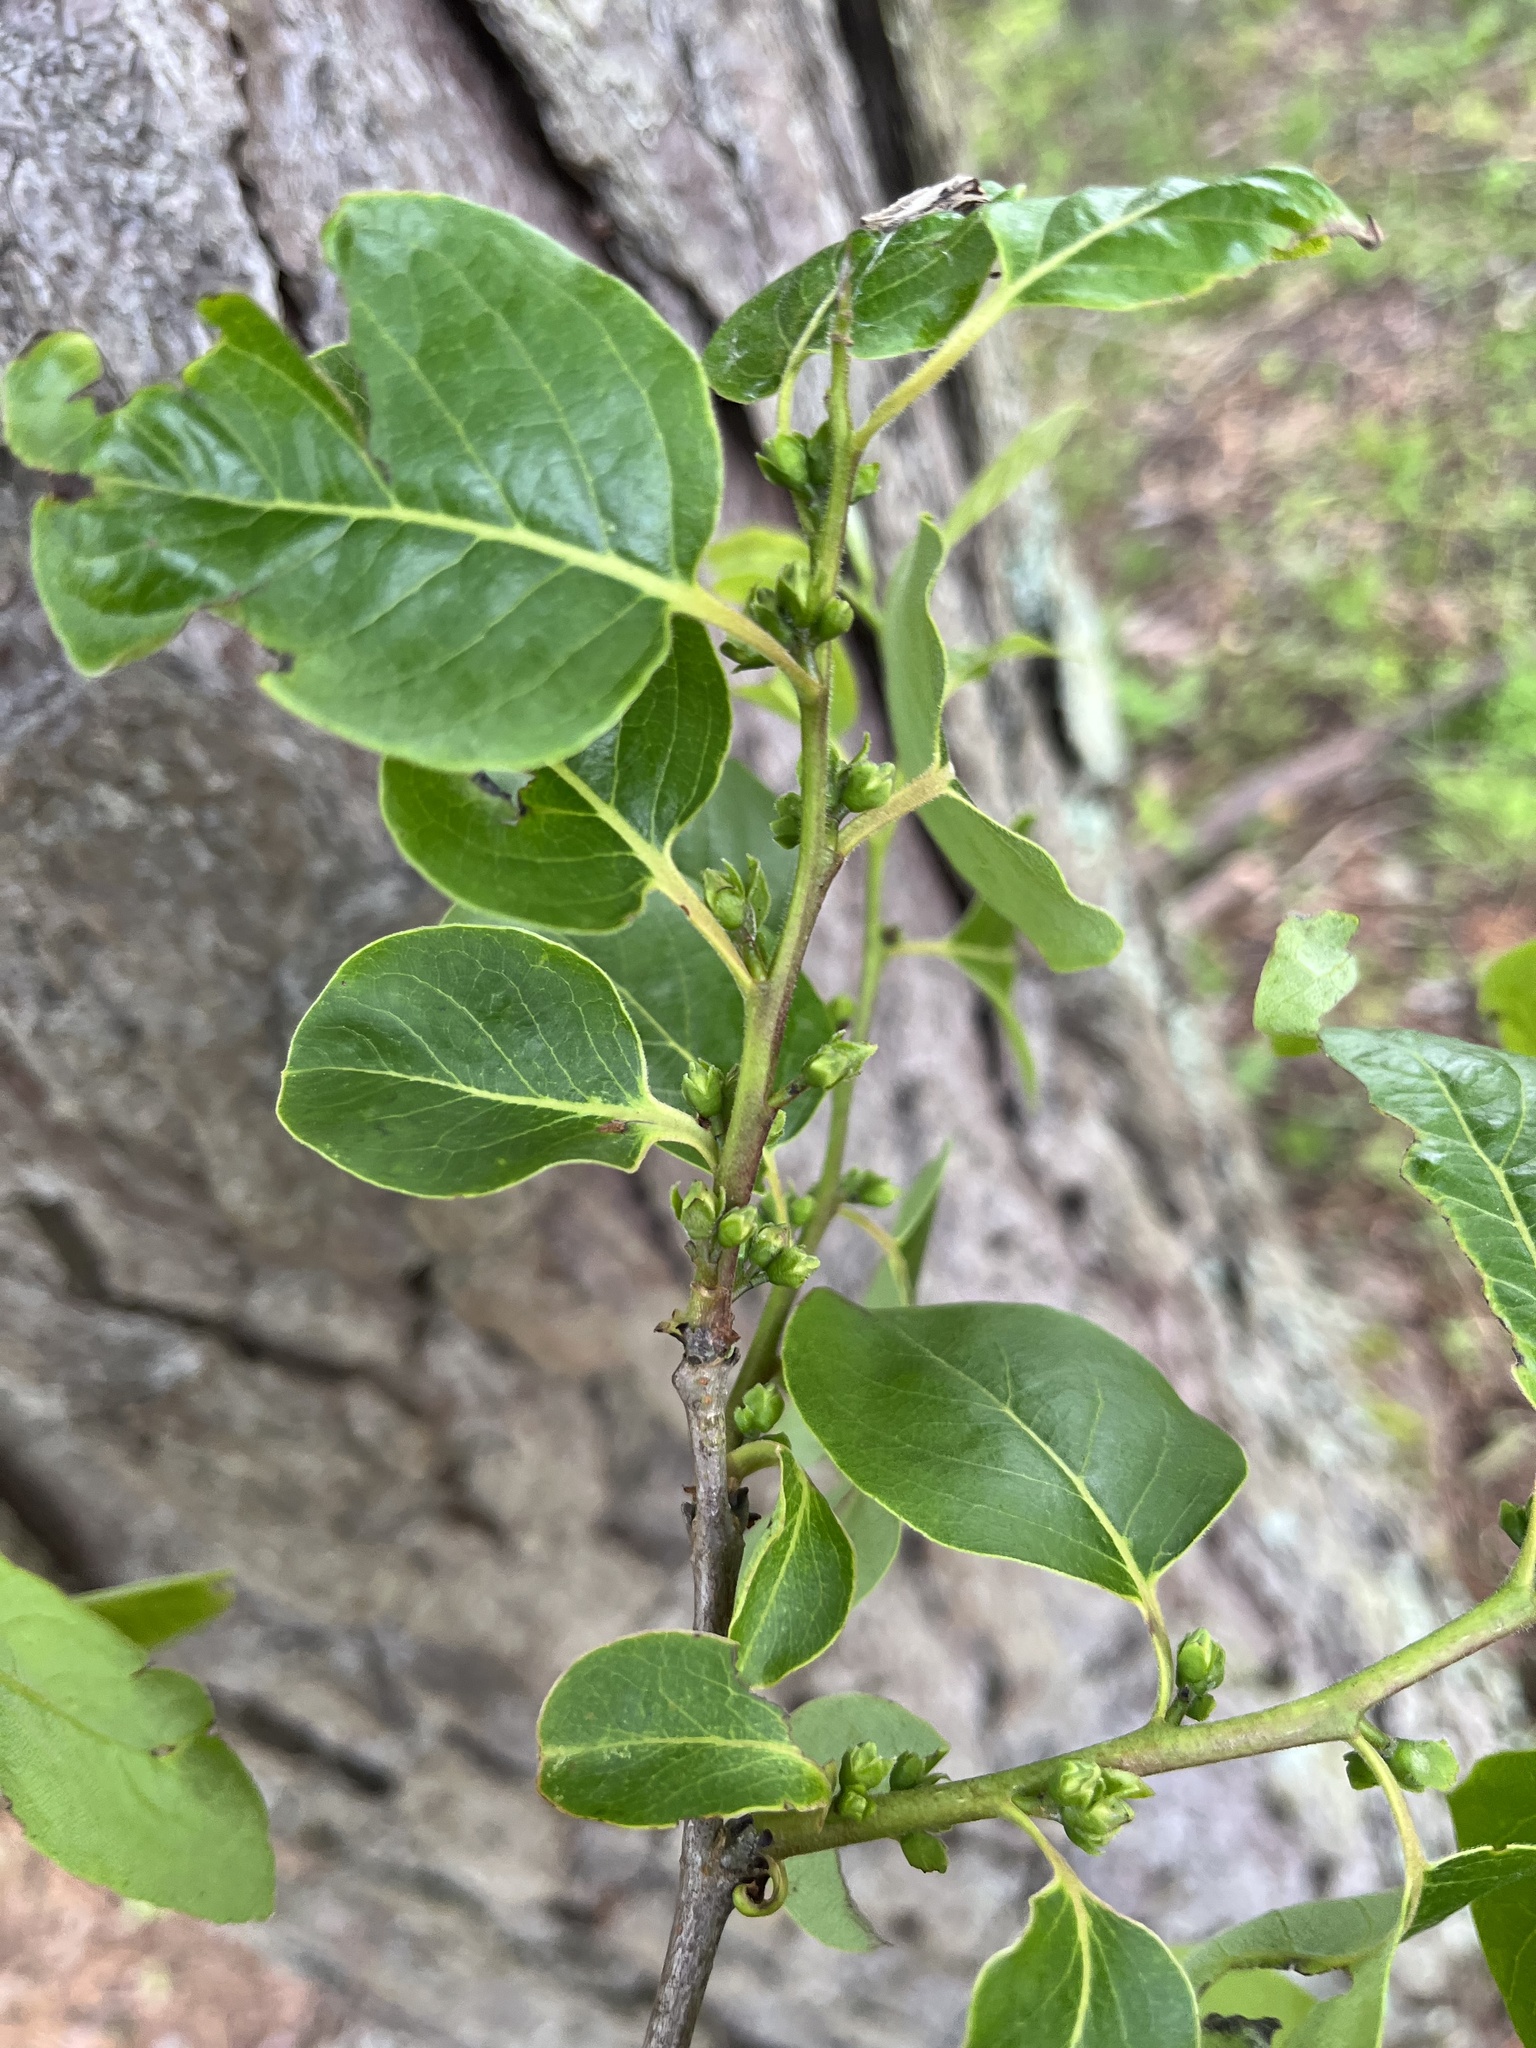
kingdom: Plantae
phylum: Tracheophyta
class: Magnoliopsida
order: Ericales
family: Ebenaceae
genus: Diospyros
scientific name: Diospyros virginiana
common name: Persimmon
